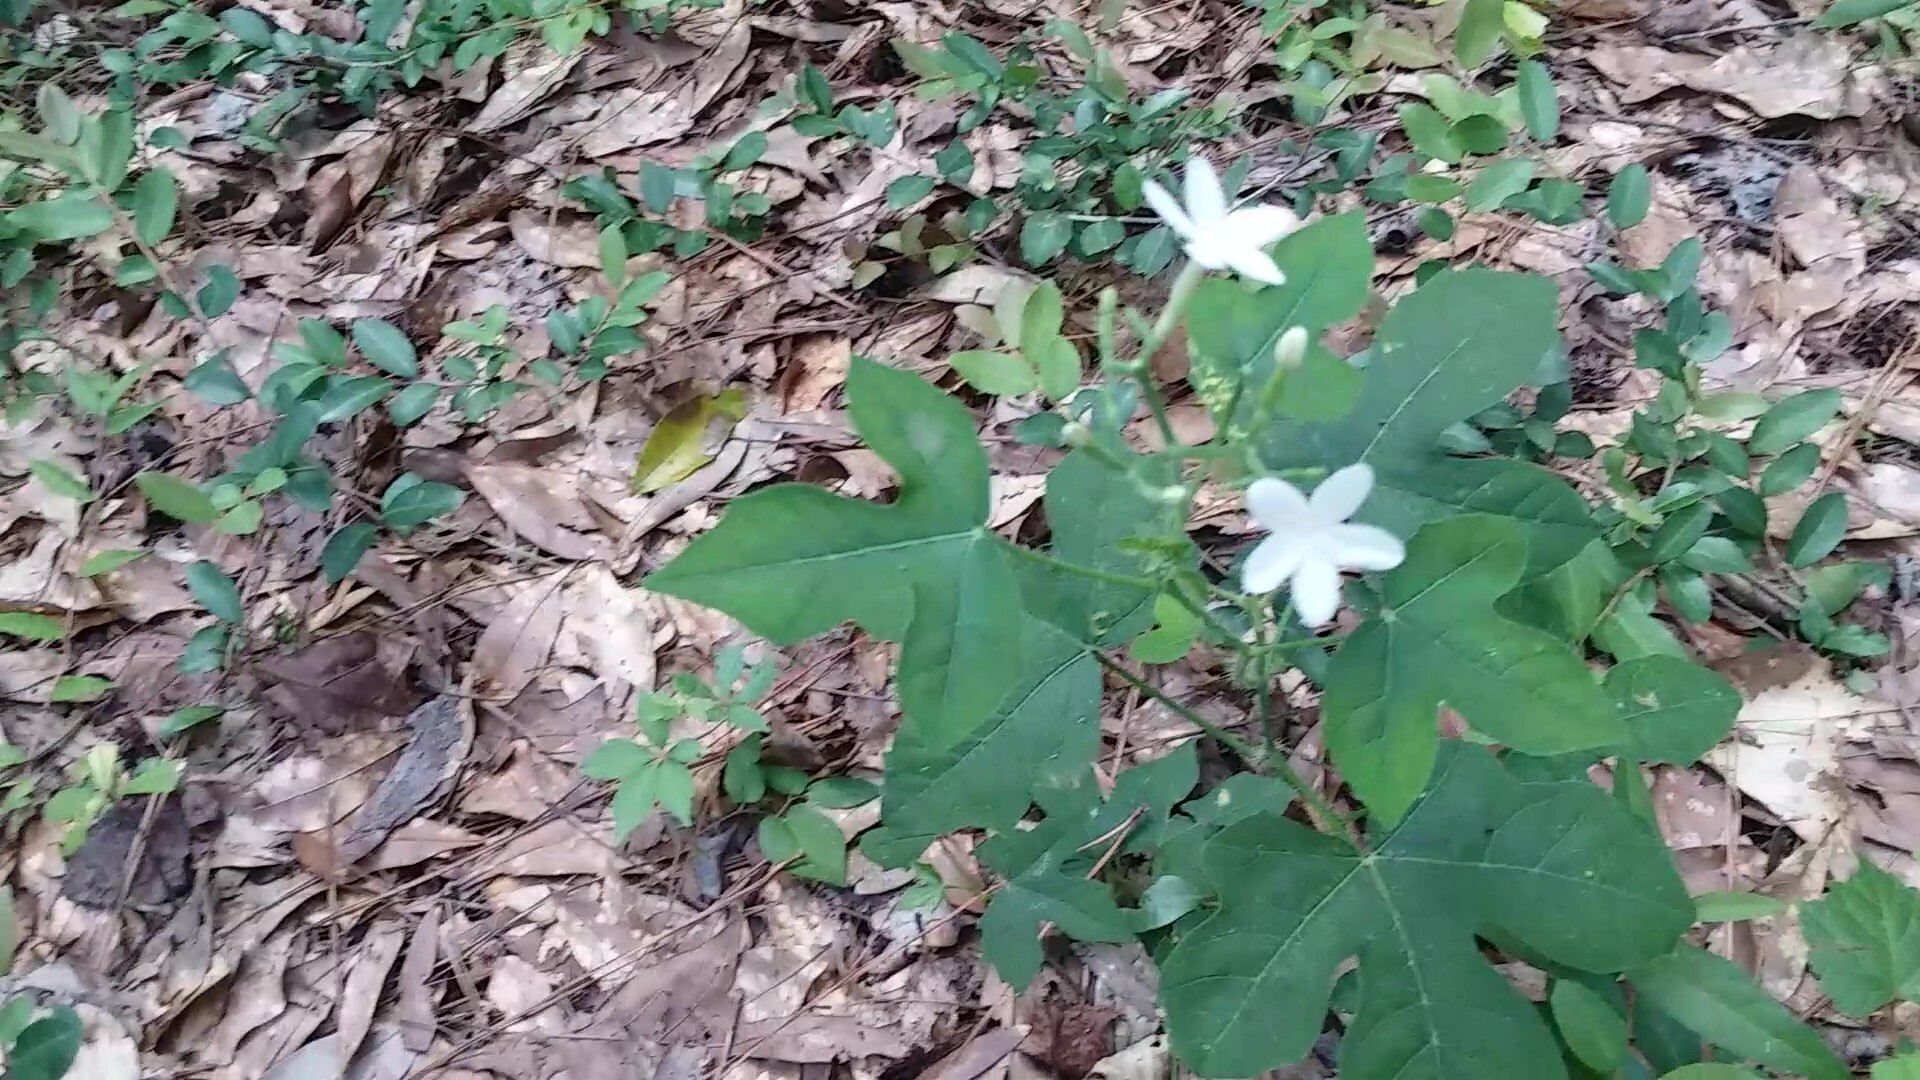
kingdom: Plantae
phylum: Tracheophyta
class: Magnoliopsida
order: Malpighiales
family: Euphorbiaceae
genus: Cnidoscolus
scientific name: Cnidoscolus stimulosus
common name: Bull-nettle
